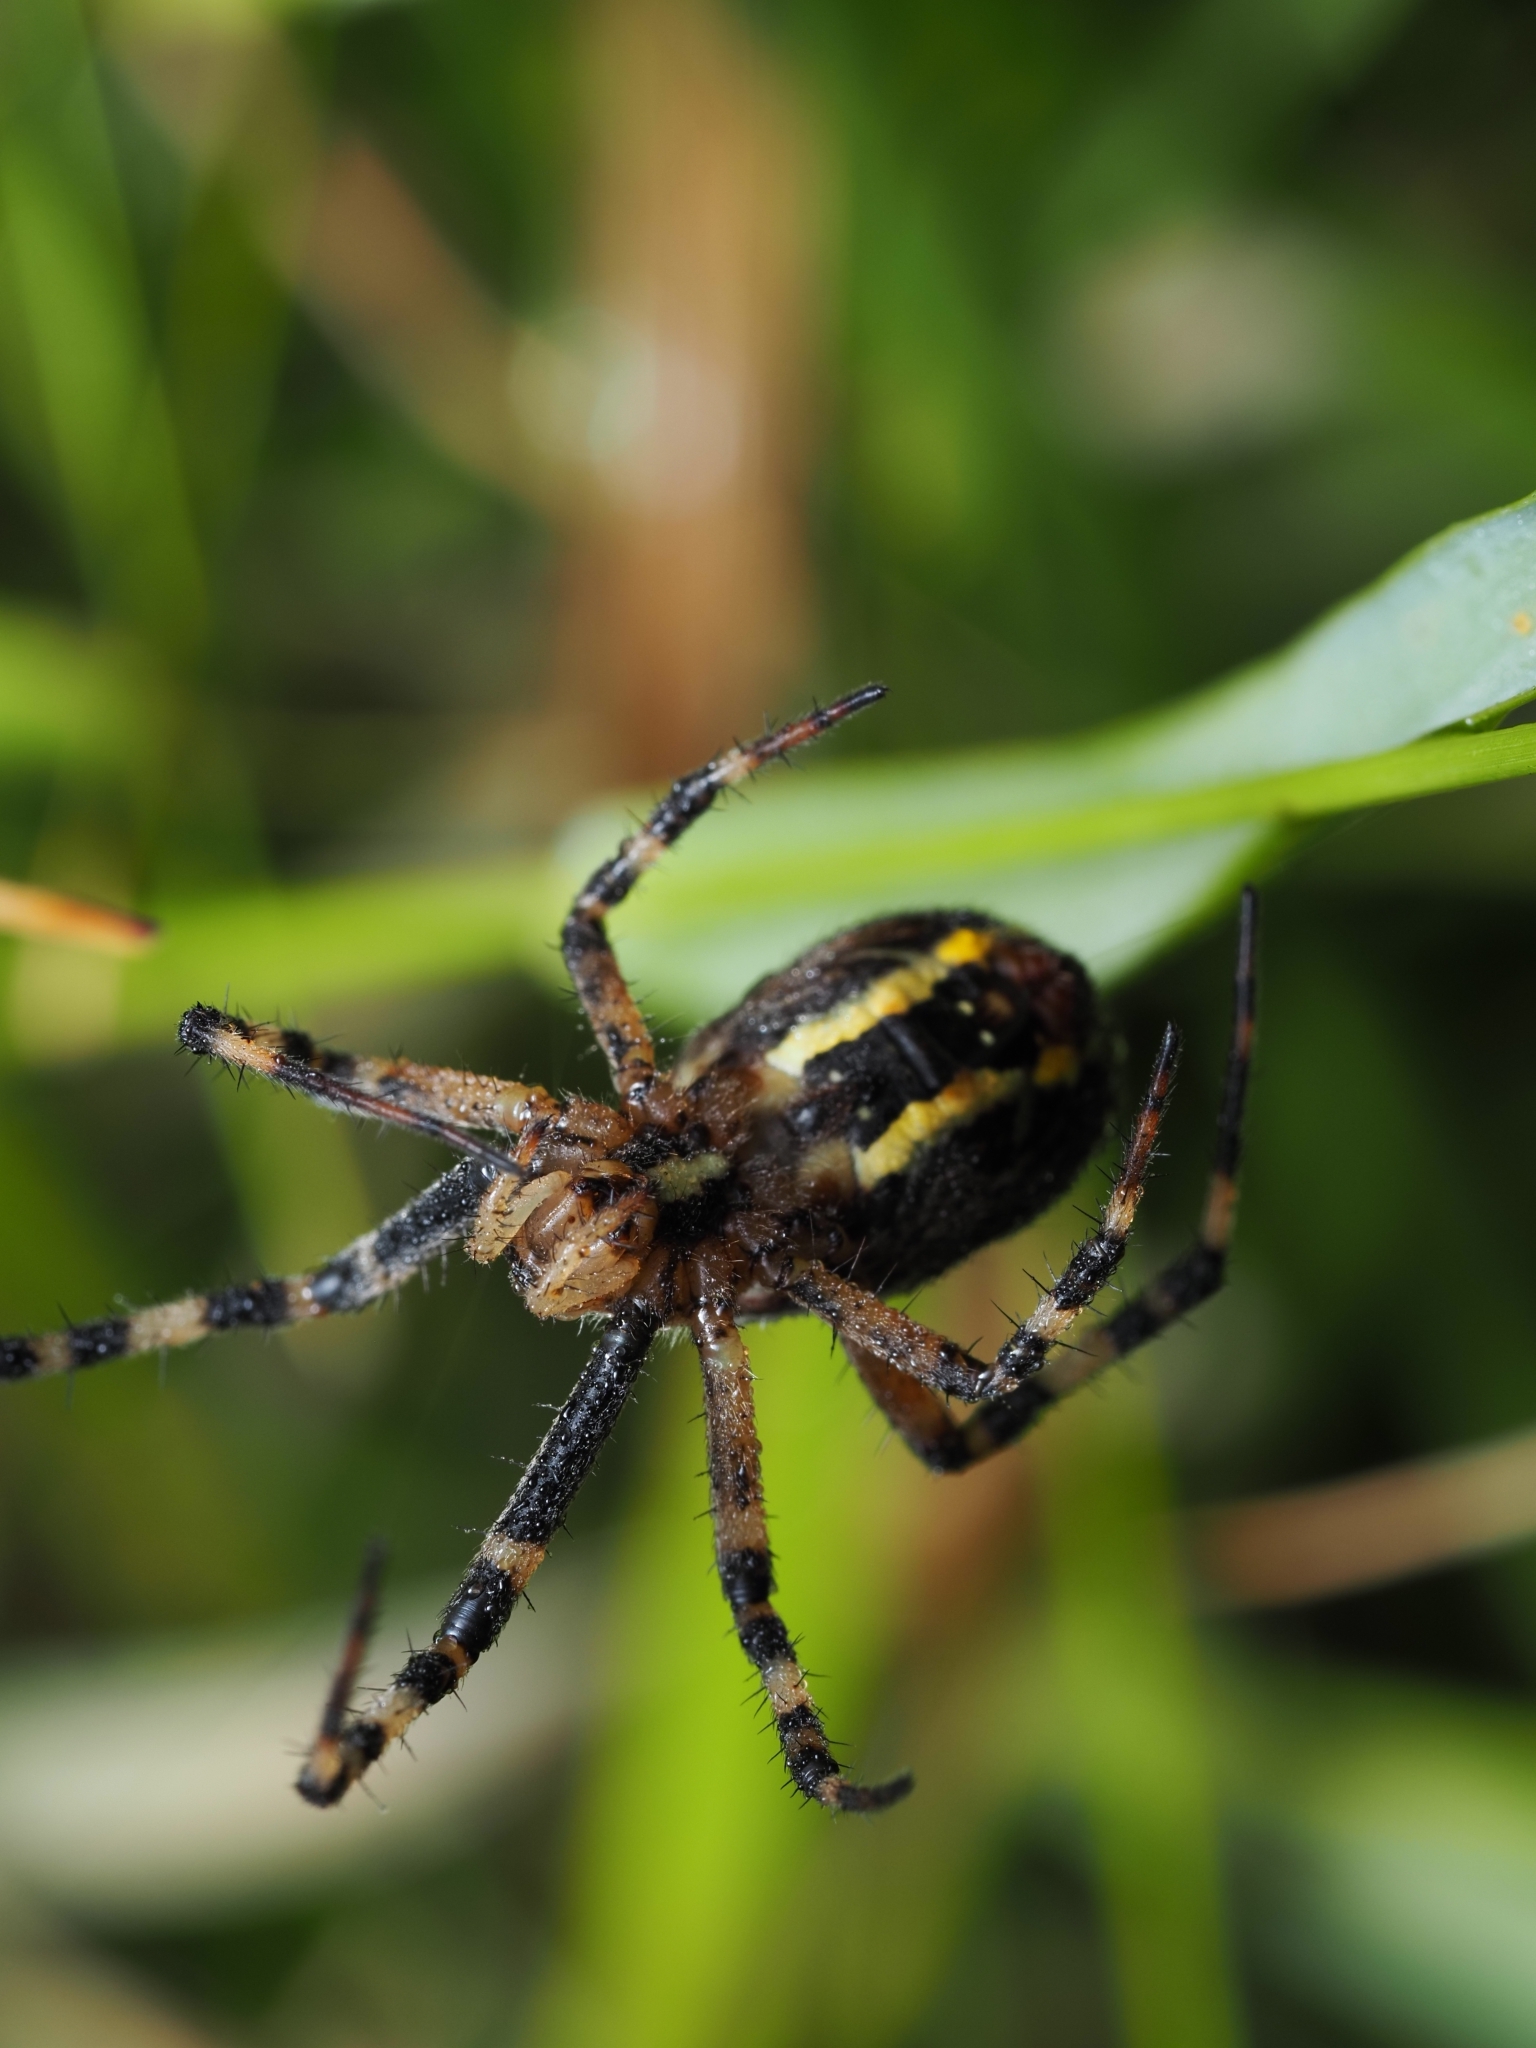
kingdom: Animalia
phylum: Arthropoda
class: Arachnida
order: Araneae
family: Araneidae
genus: Argiope
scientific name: Argiope bruennichi
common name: Wasp spider
